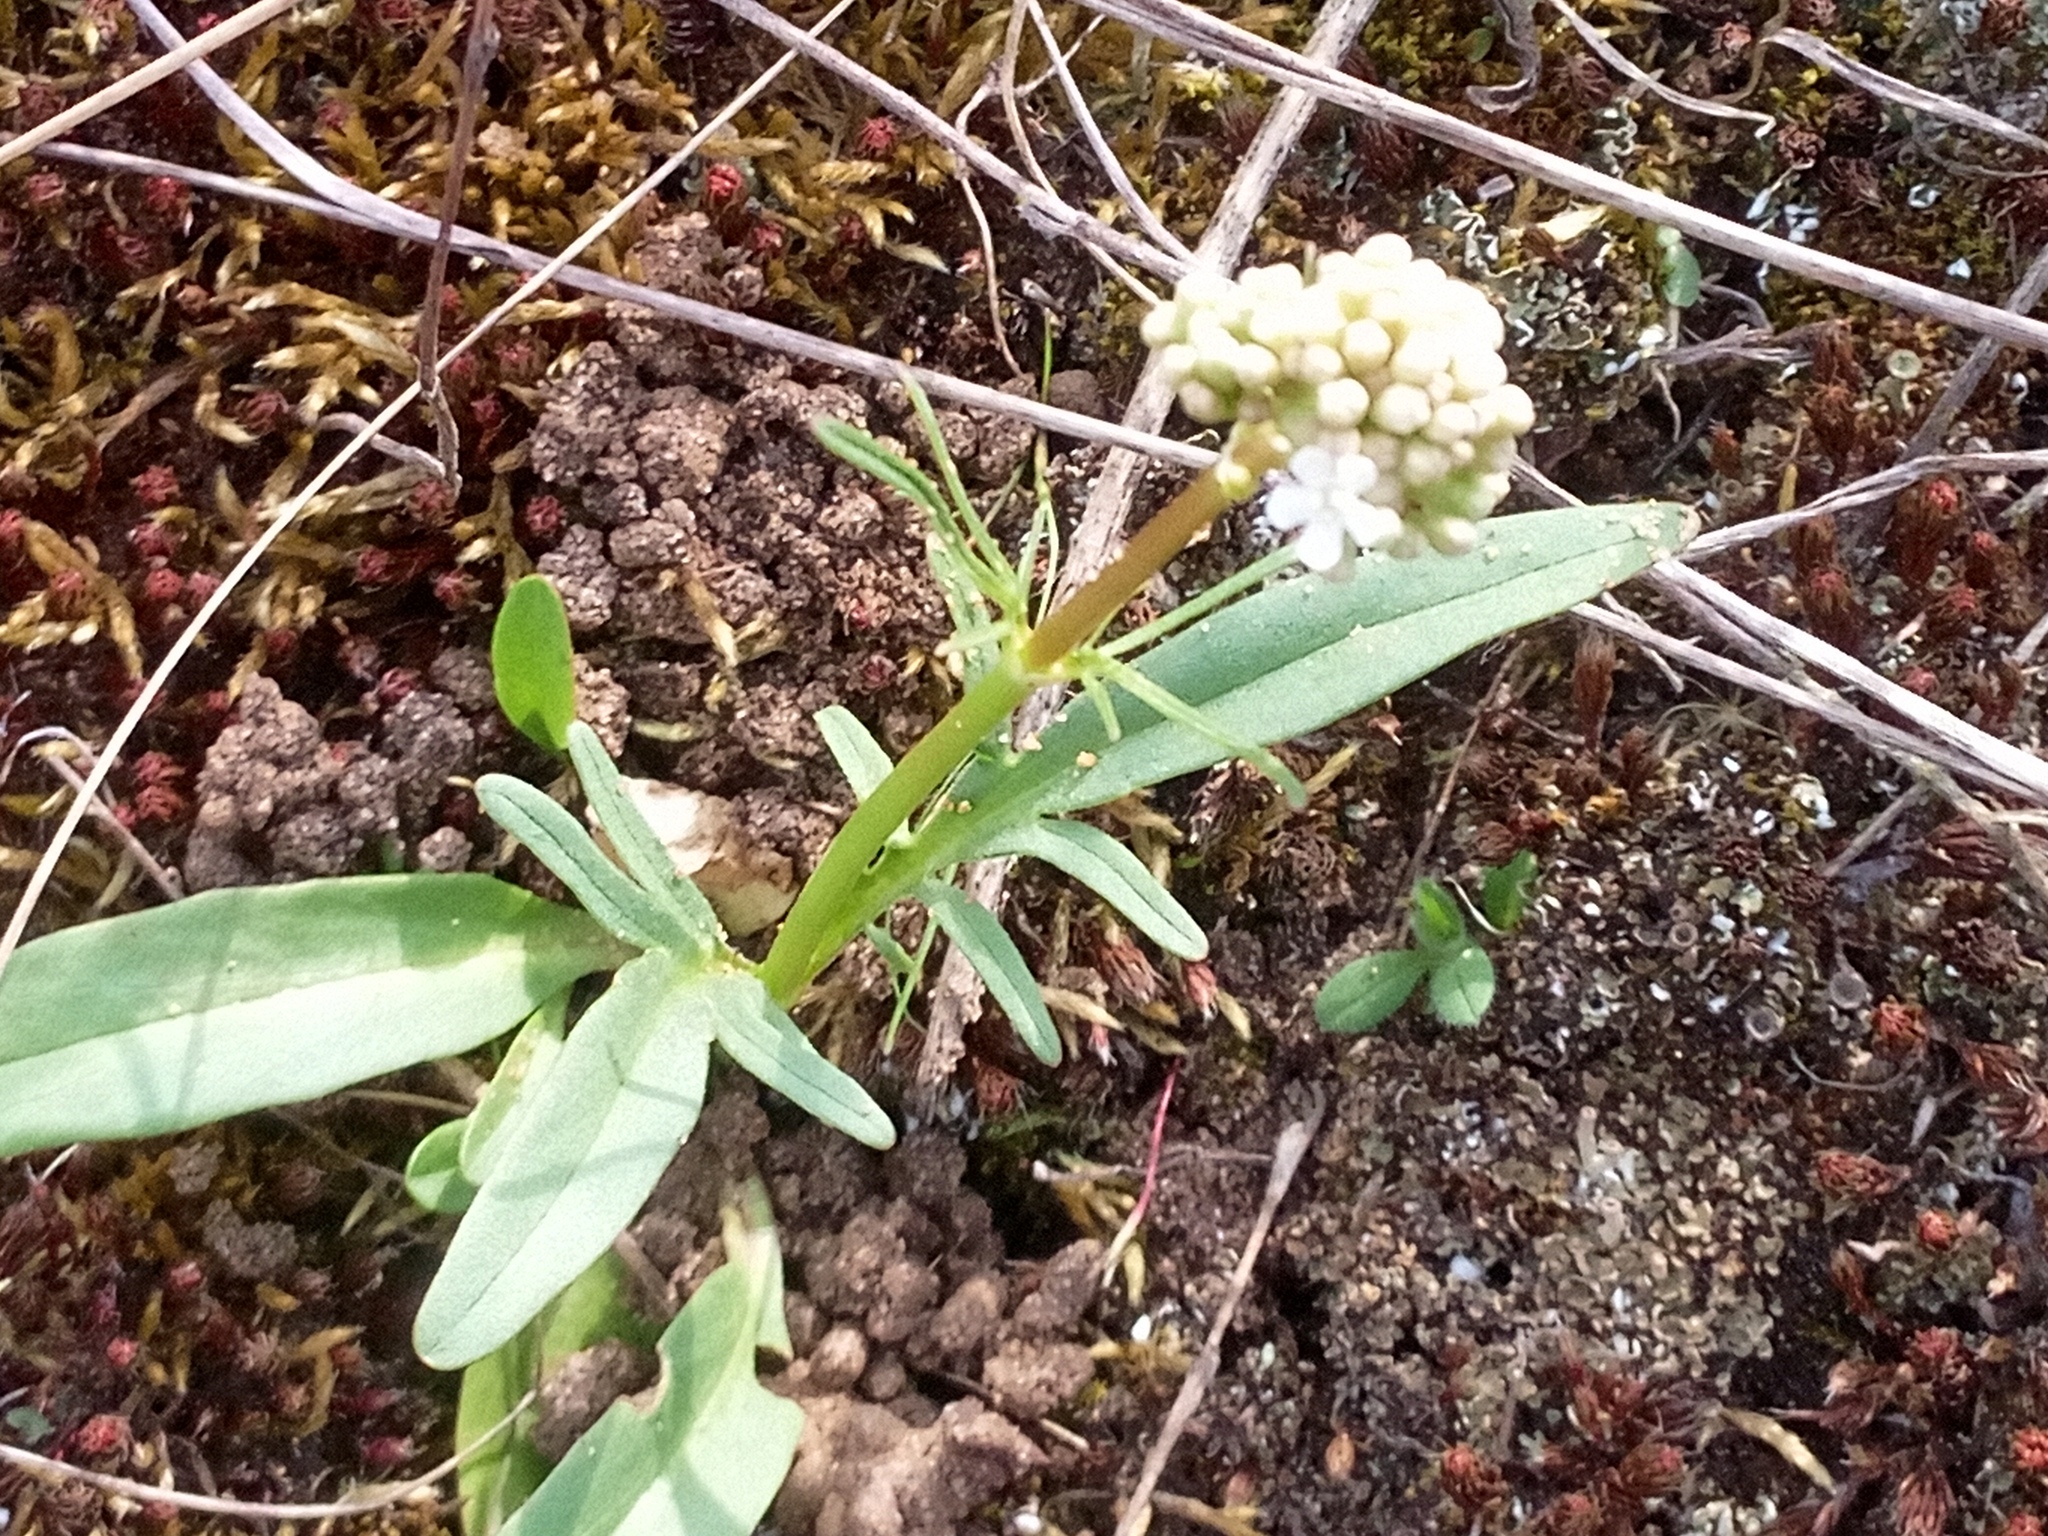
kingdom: Plantae
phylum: Tracheophyta
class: Magnoliopsida
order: Dipsacales
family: Caprifoliaceae
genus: Valeriana
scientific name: Valeriana tuberosa
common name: Tuberous valerian
